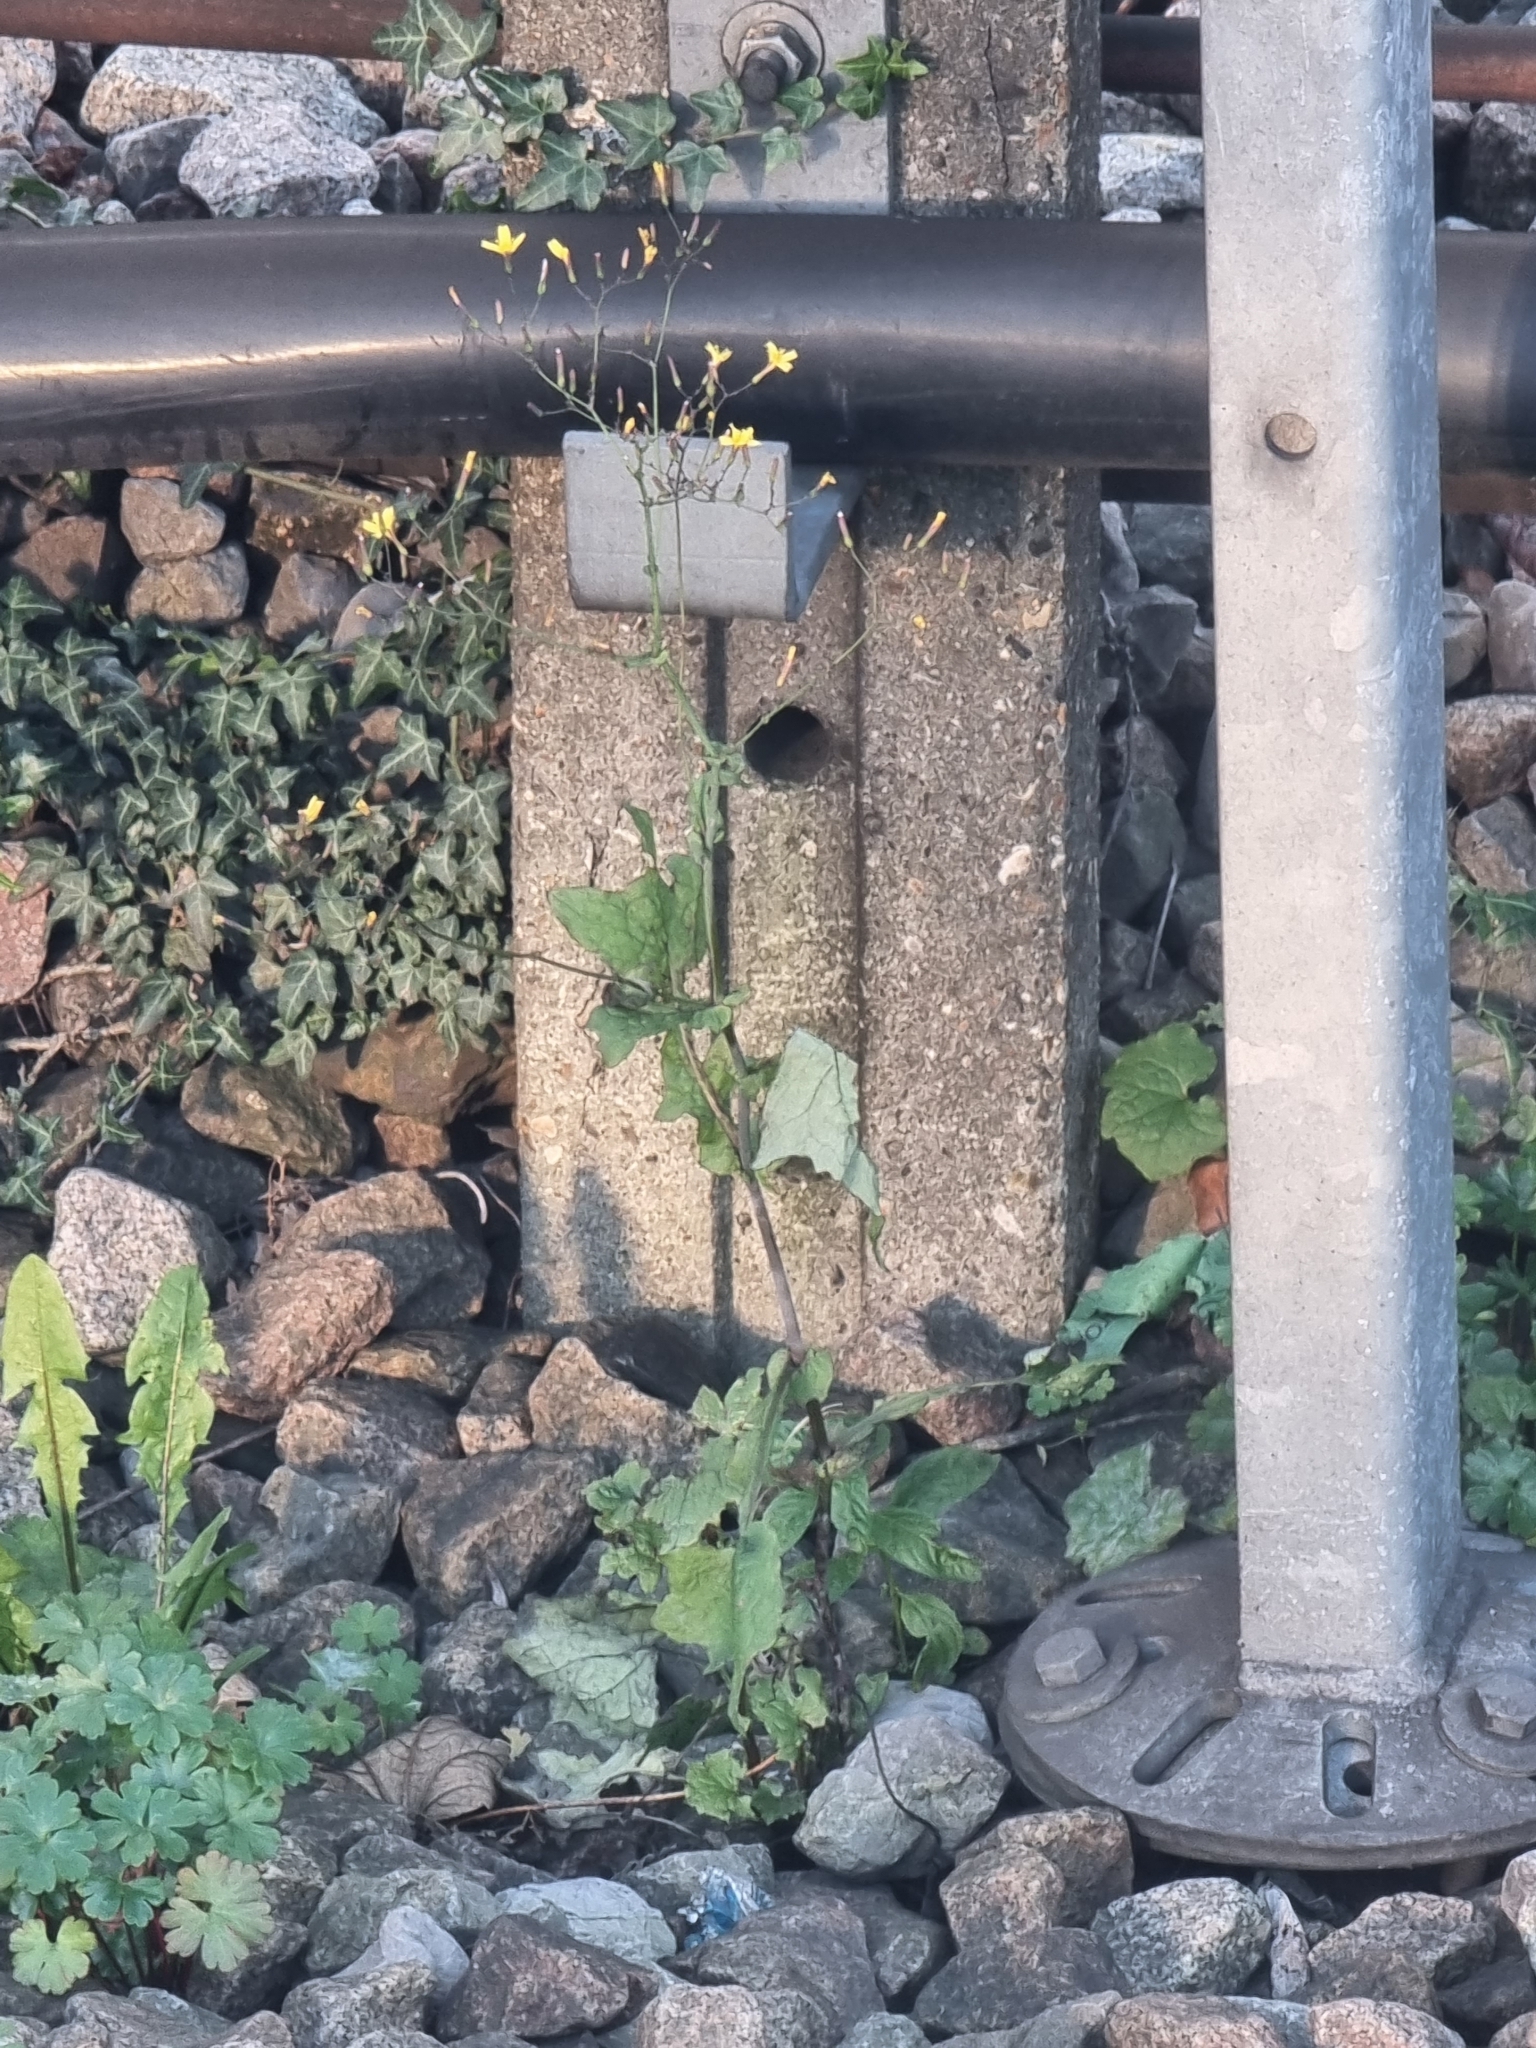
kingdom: Plantae
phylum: Tracheophyta
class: Magnoliopsida
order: Asterales
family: Asteraceae
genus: Mycelis
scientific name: Mycelis muralis
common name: Wall lettuce
